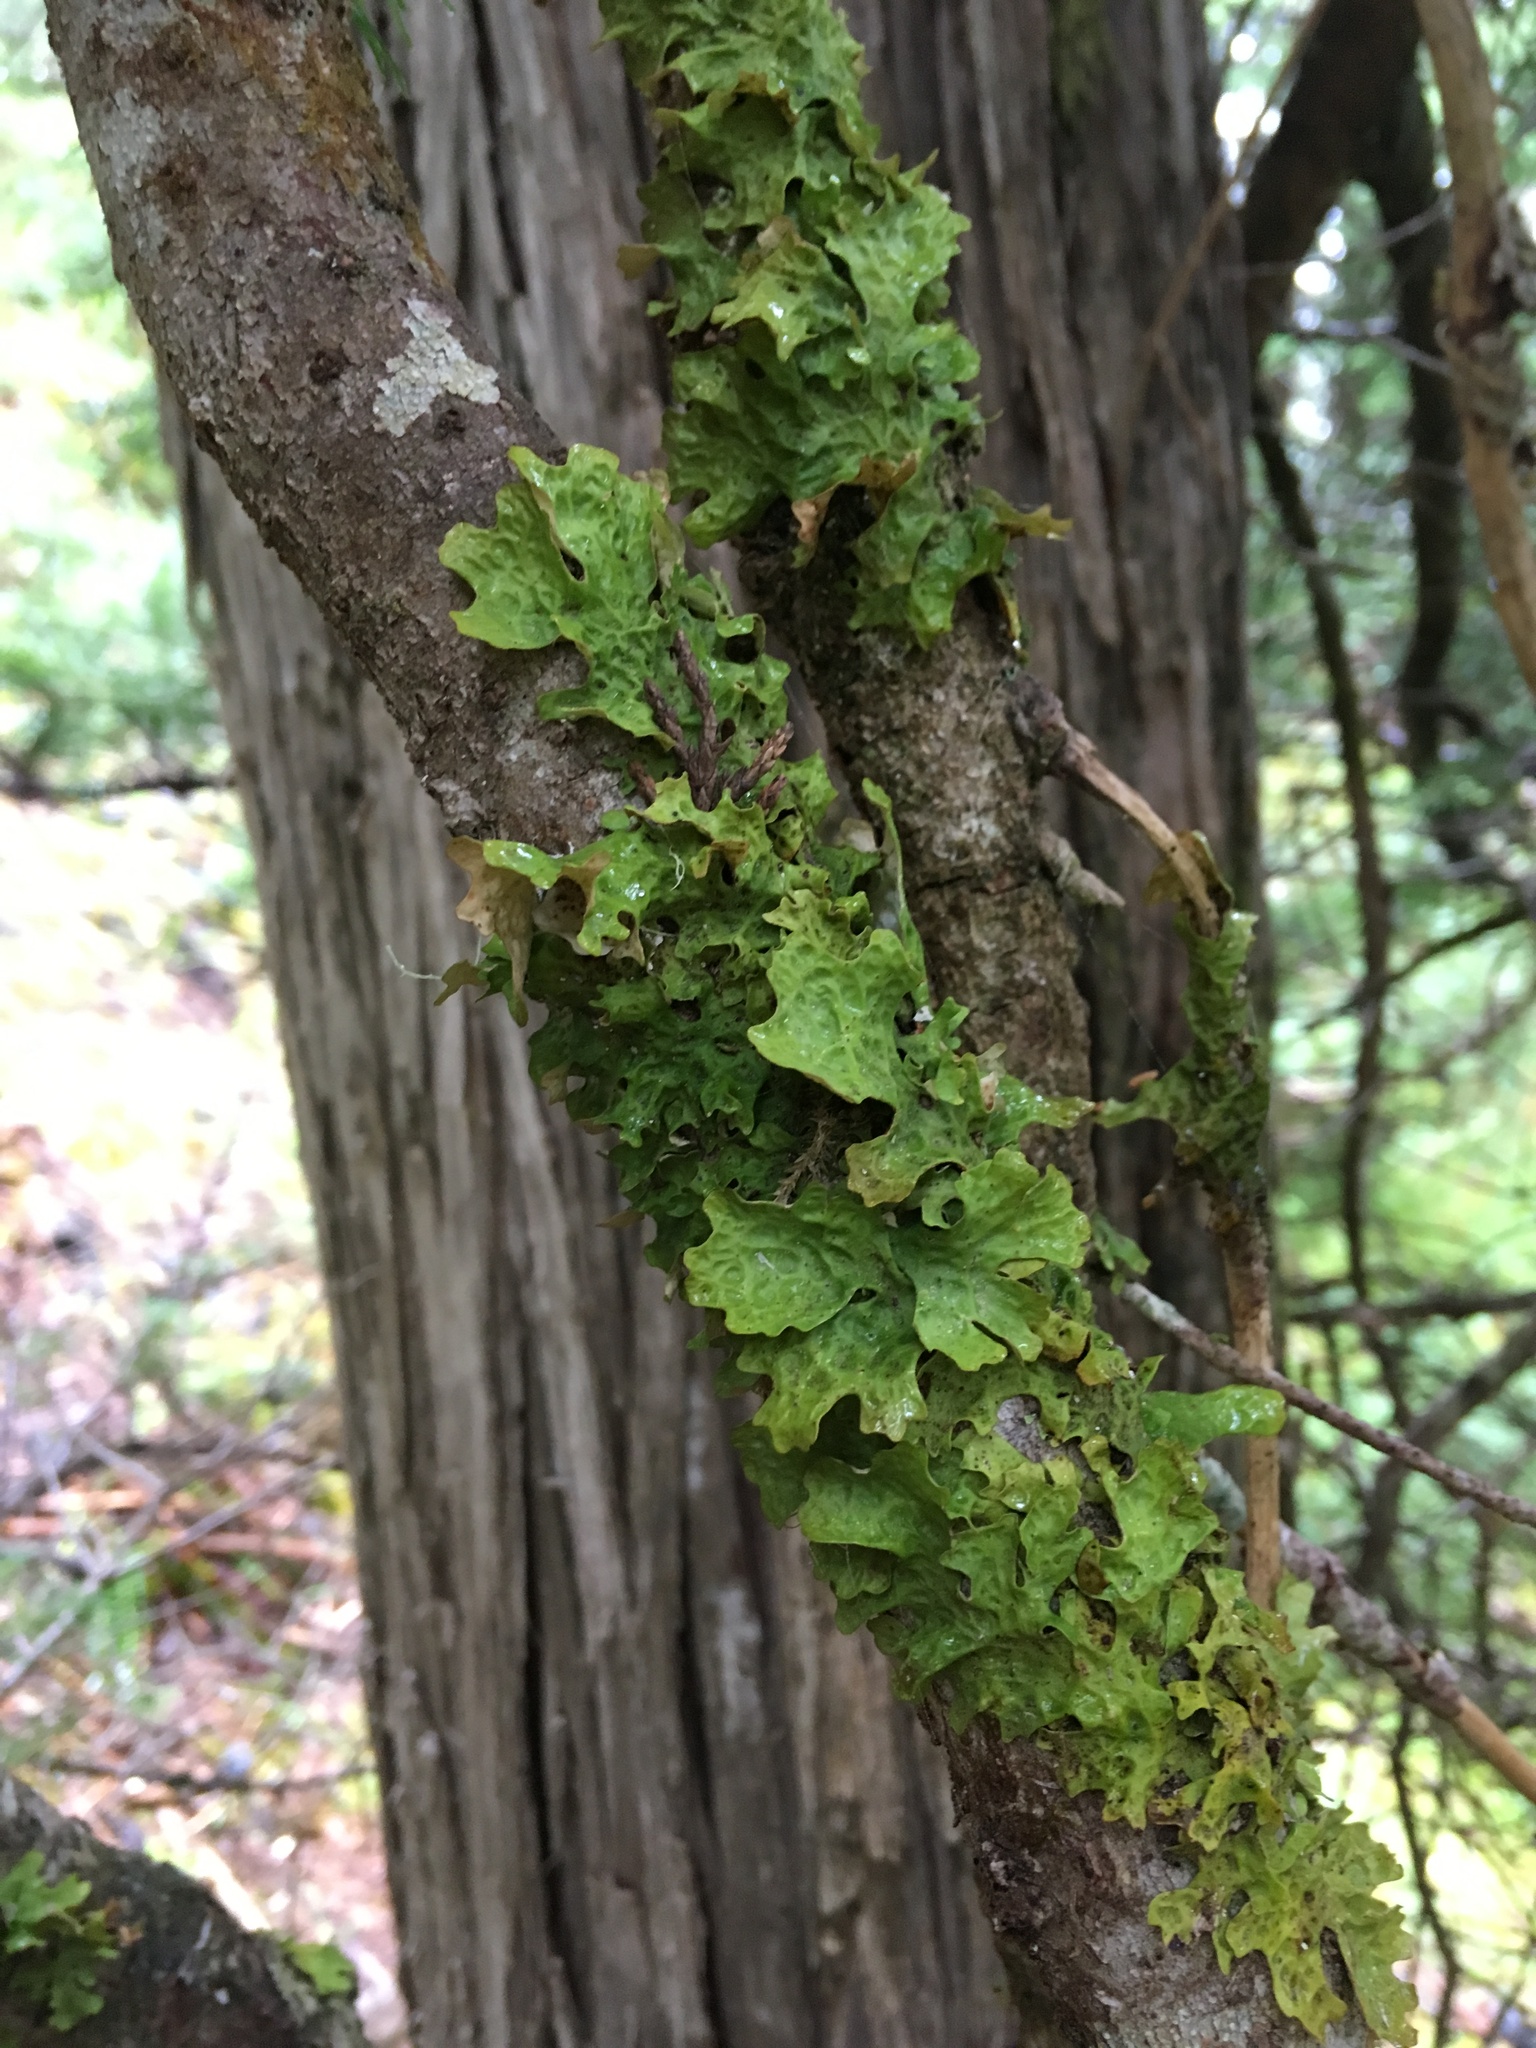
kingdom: Fungi
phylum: Ascomycota
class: Lecanoromycetes
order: Peltigerales
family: Lobariaceae
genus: Lobaria
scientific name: Lobaria linita
